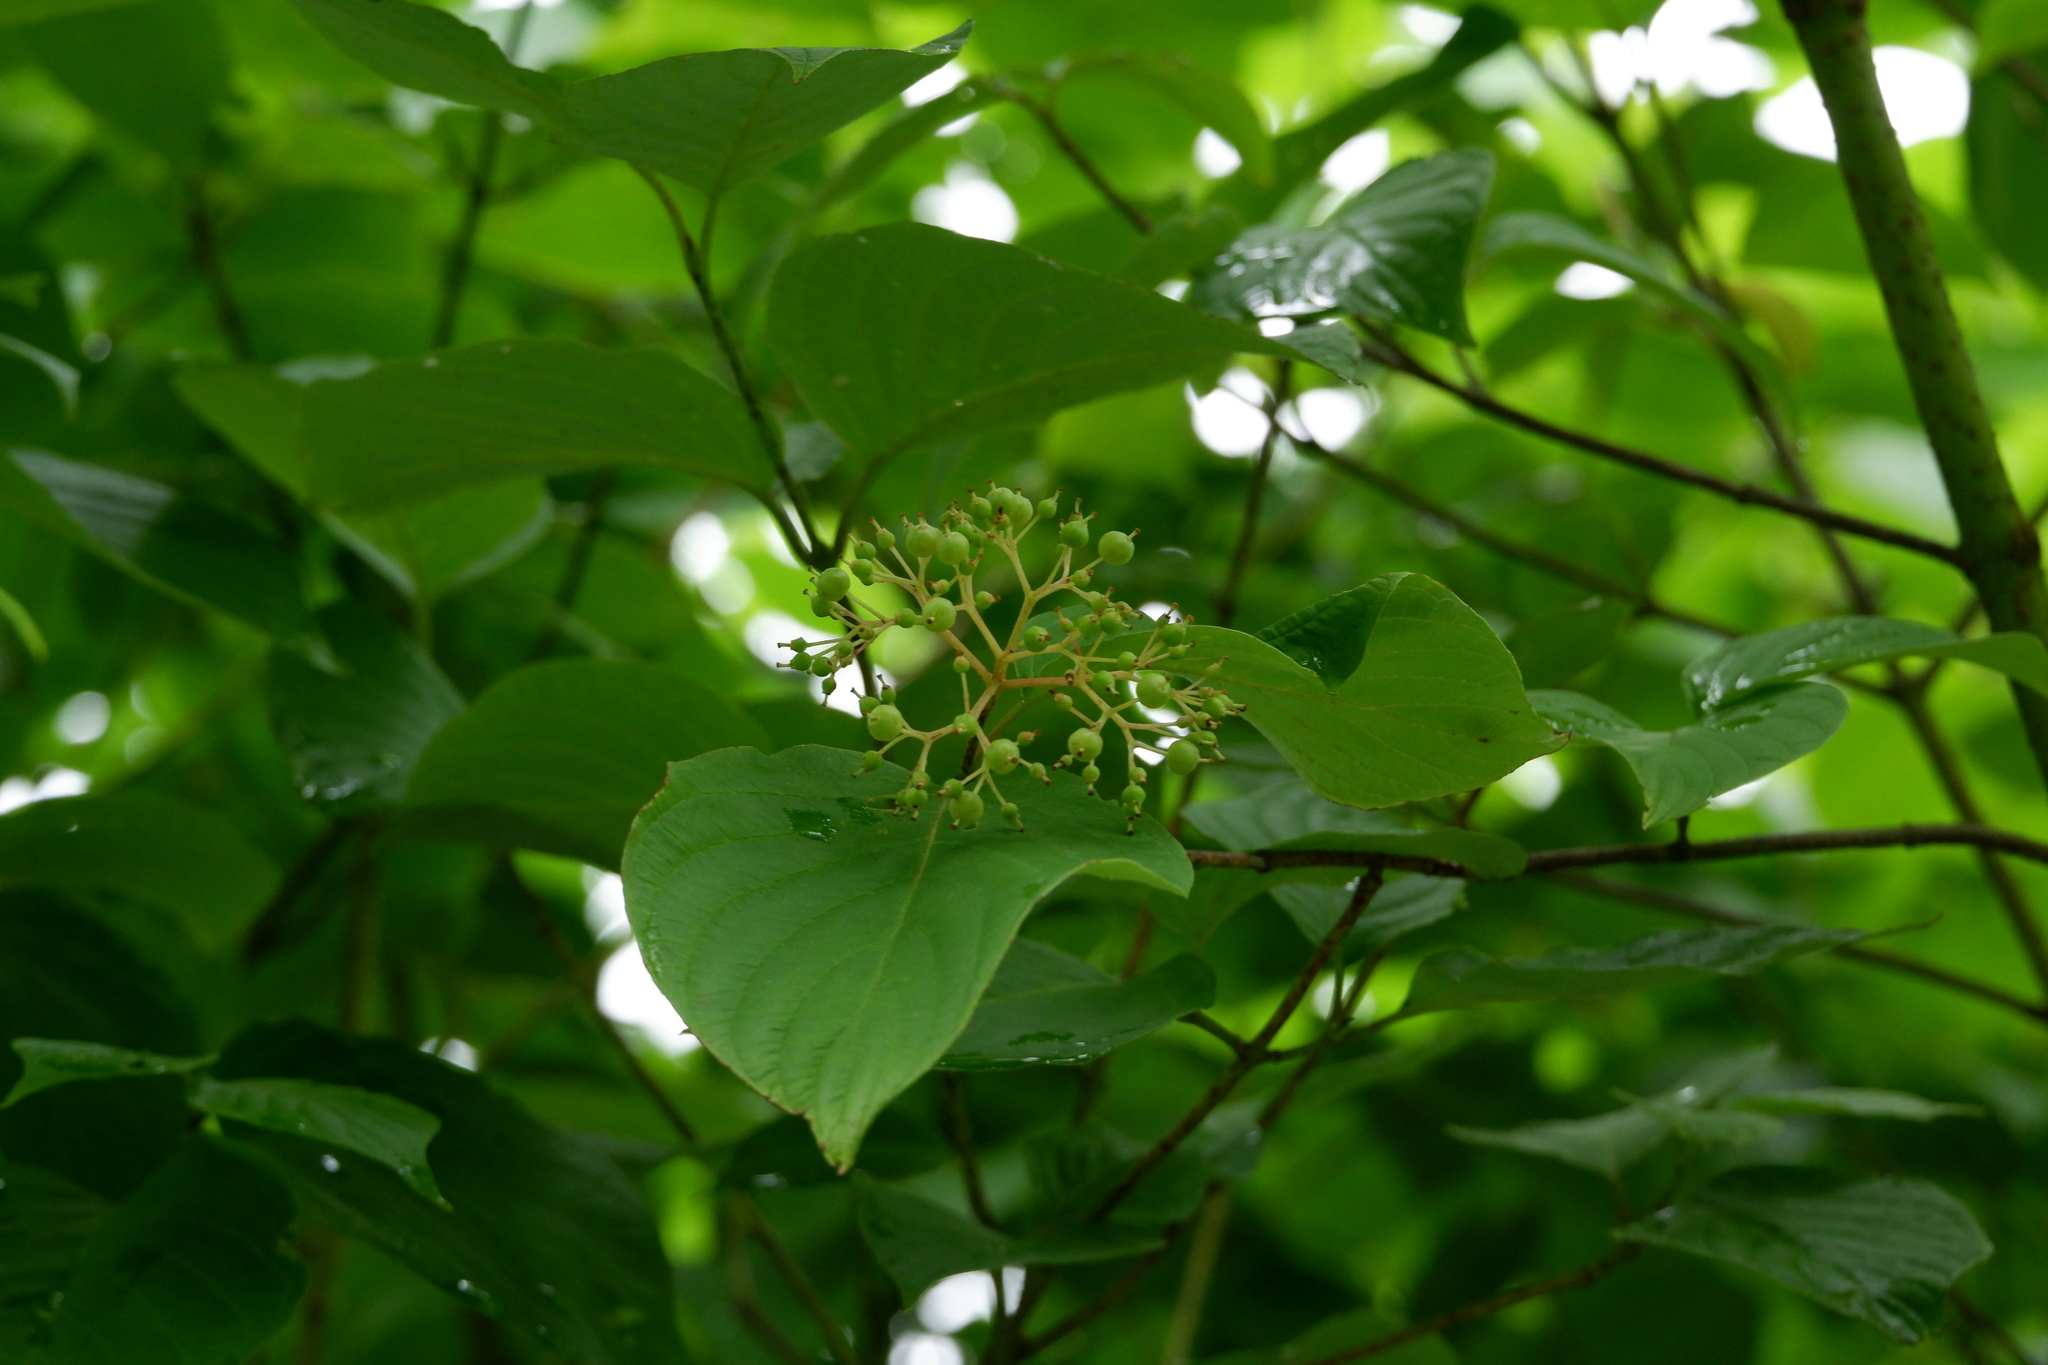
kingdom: Plantae
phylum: Tracheophyta
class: Magnoliopsida
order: Cornales
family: Cornaceae
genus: Cornus
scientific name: Cornus rugosa
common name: Round-leaf dogwood
